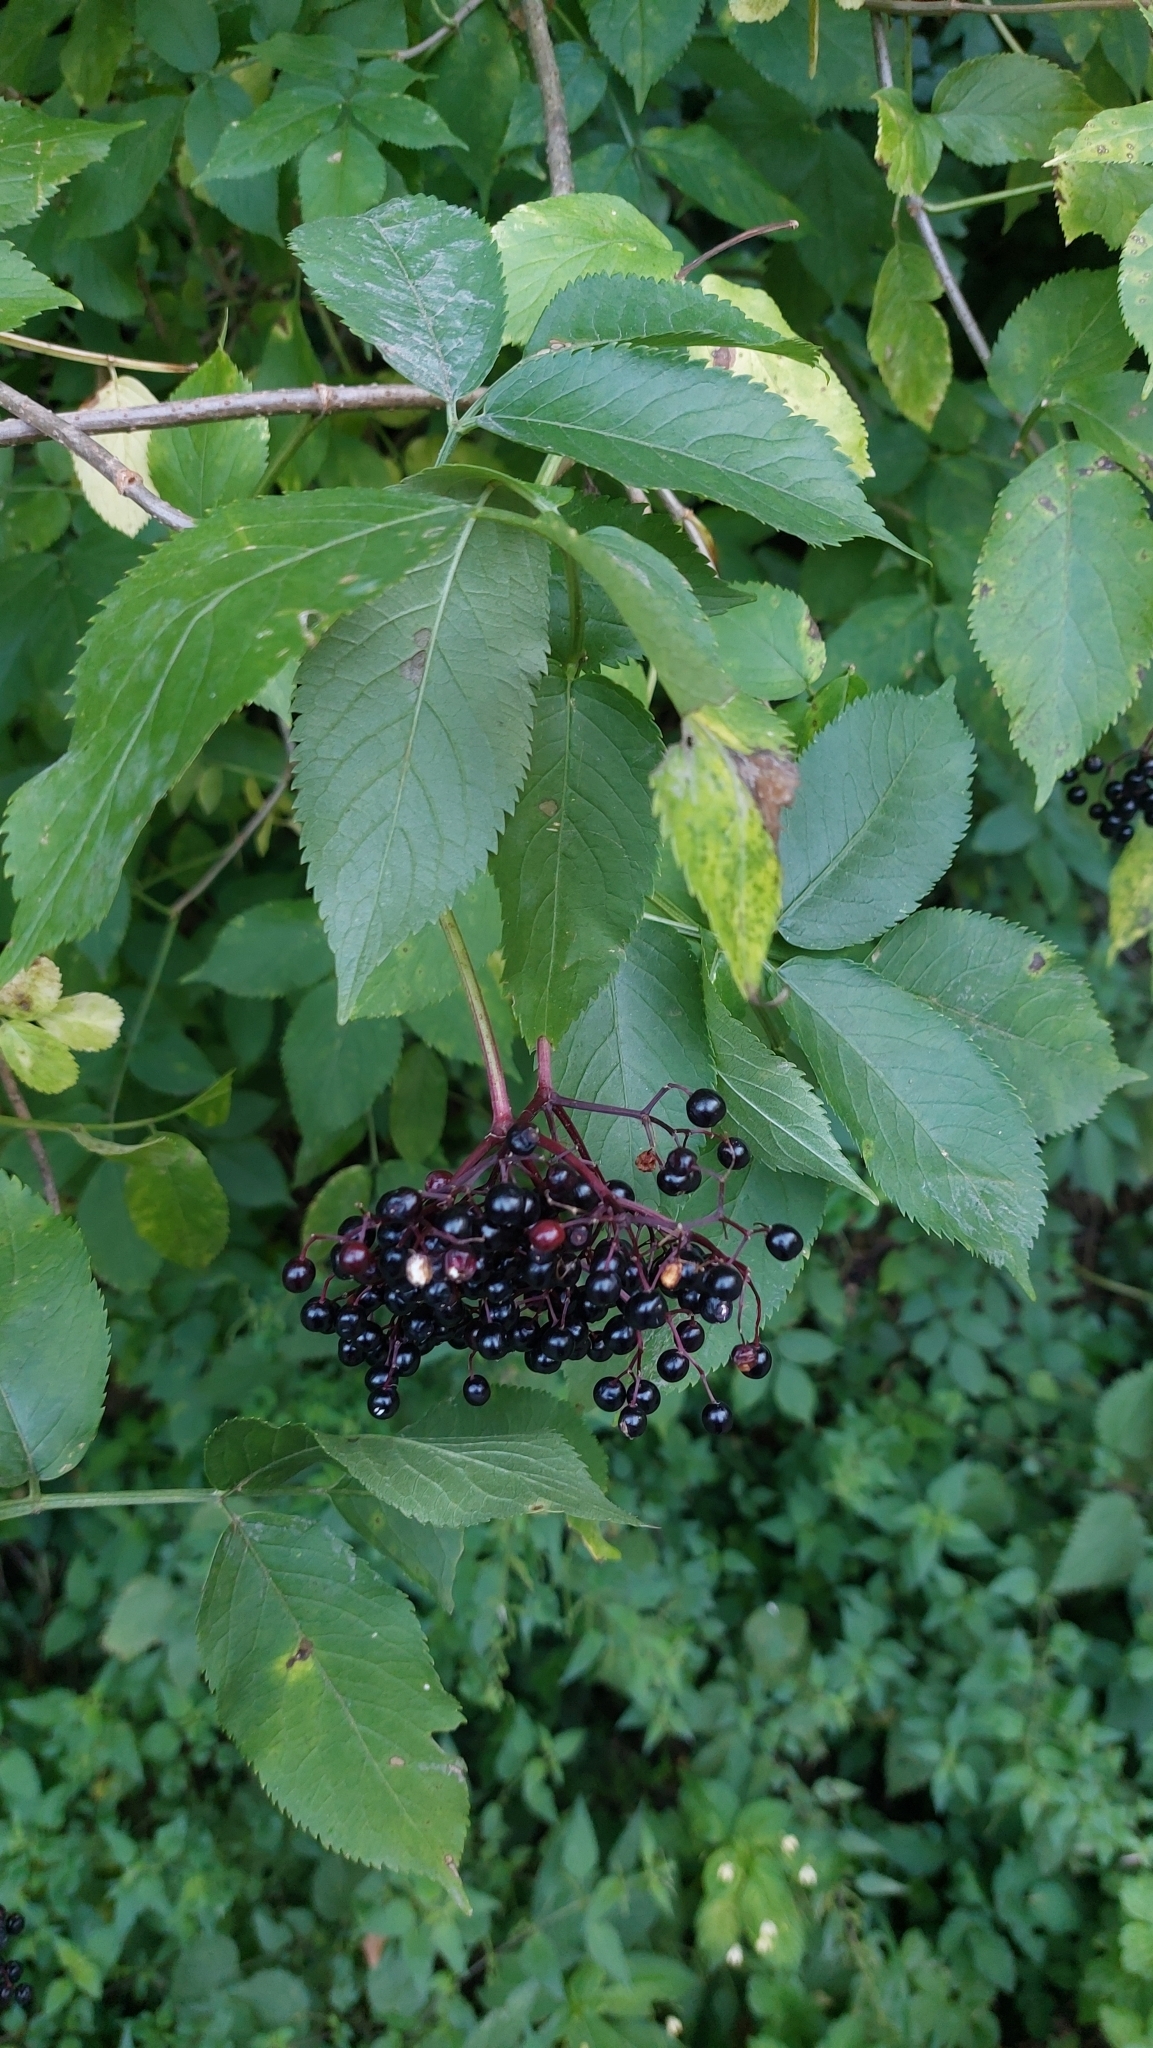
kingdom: Plantae
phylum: Tracheophyta
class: Magnoliopsida
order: Dipsacales
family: Viburnaceae
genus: Sambucus
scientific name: Sambucus nigra
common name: Elder
